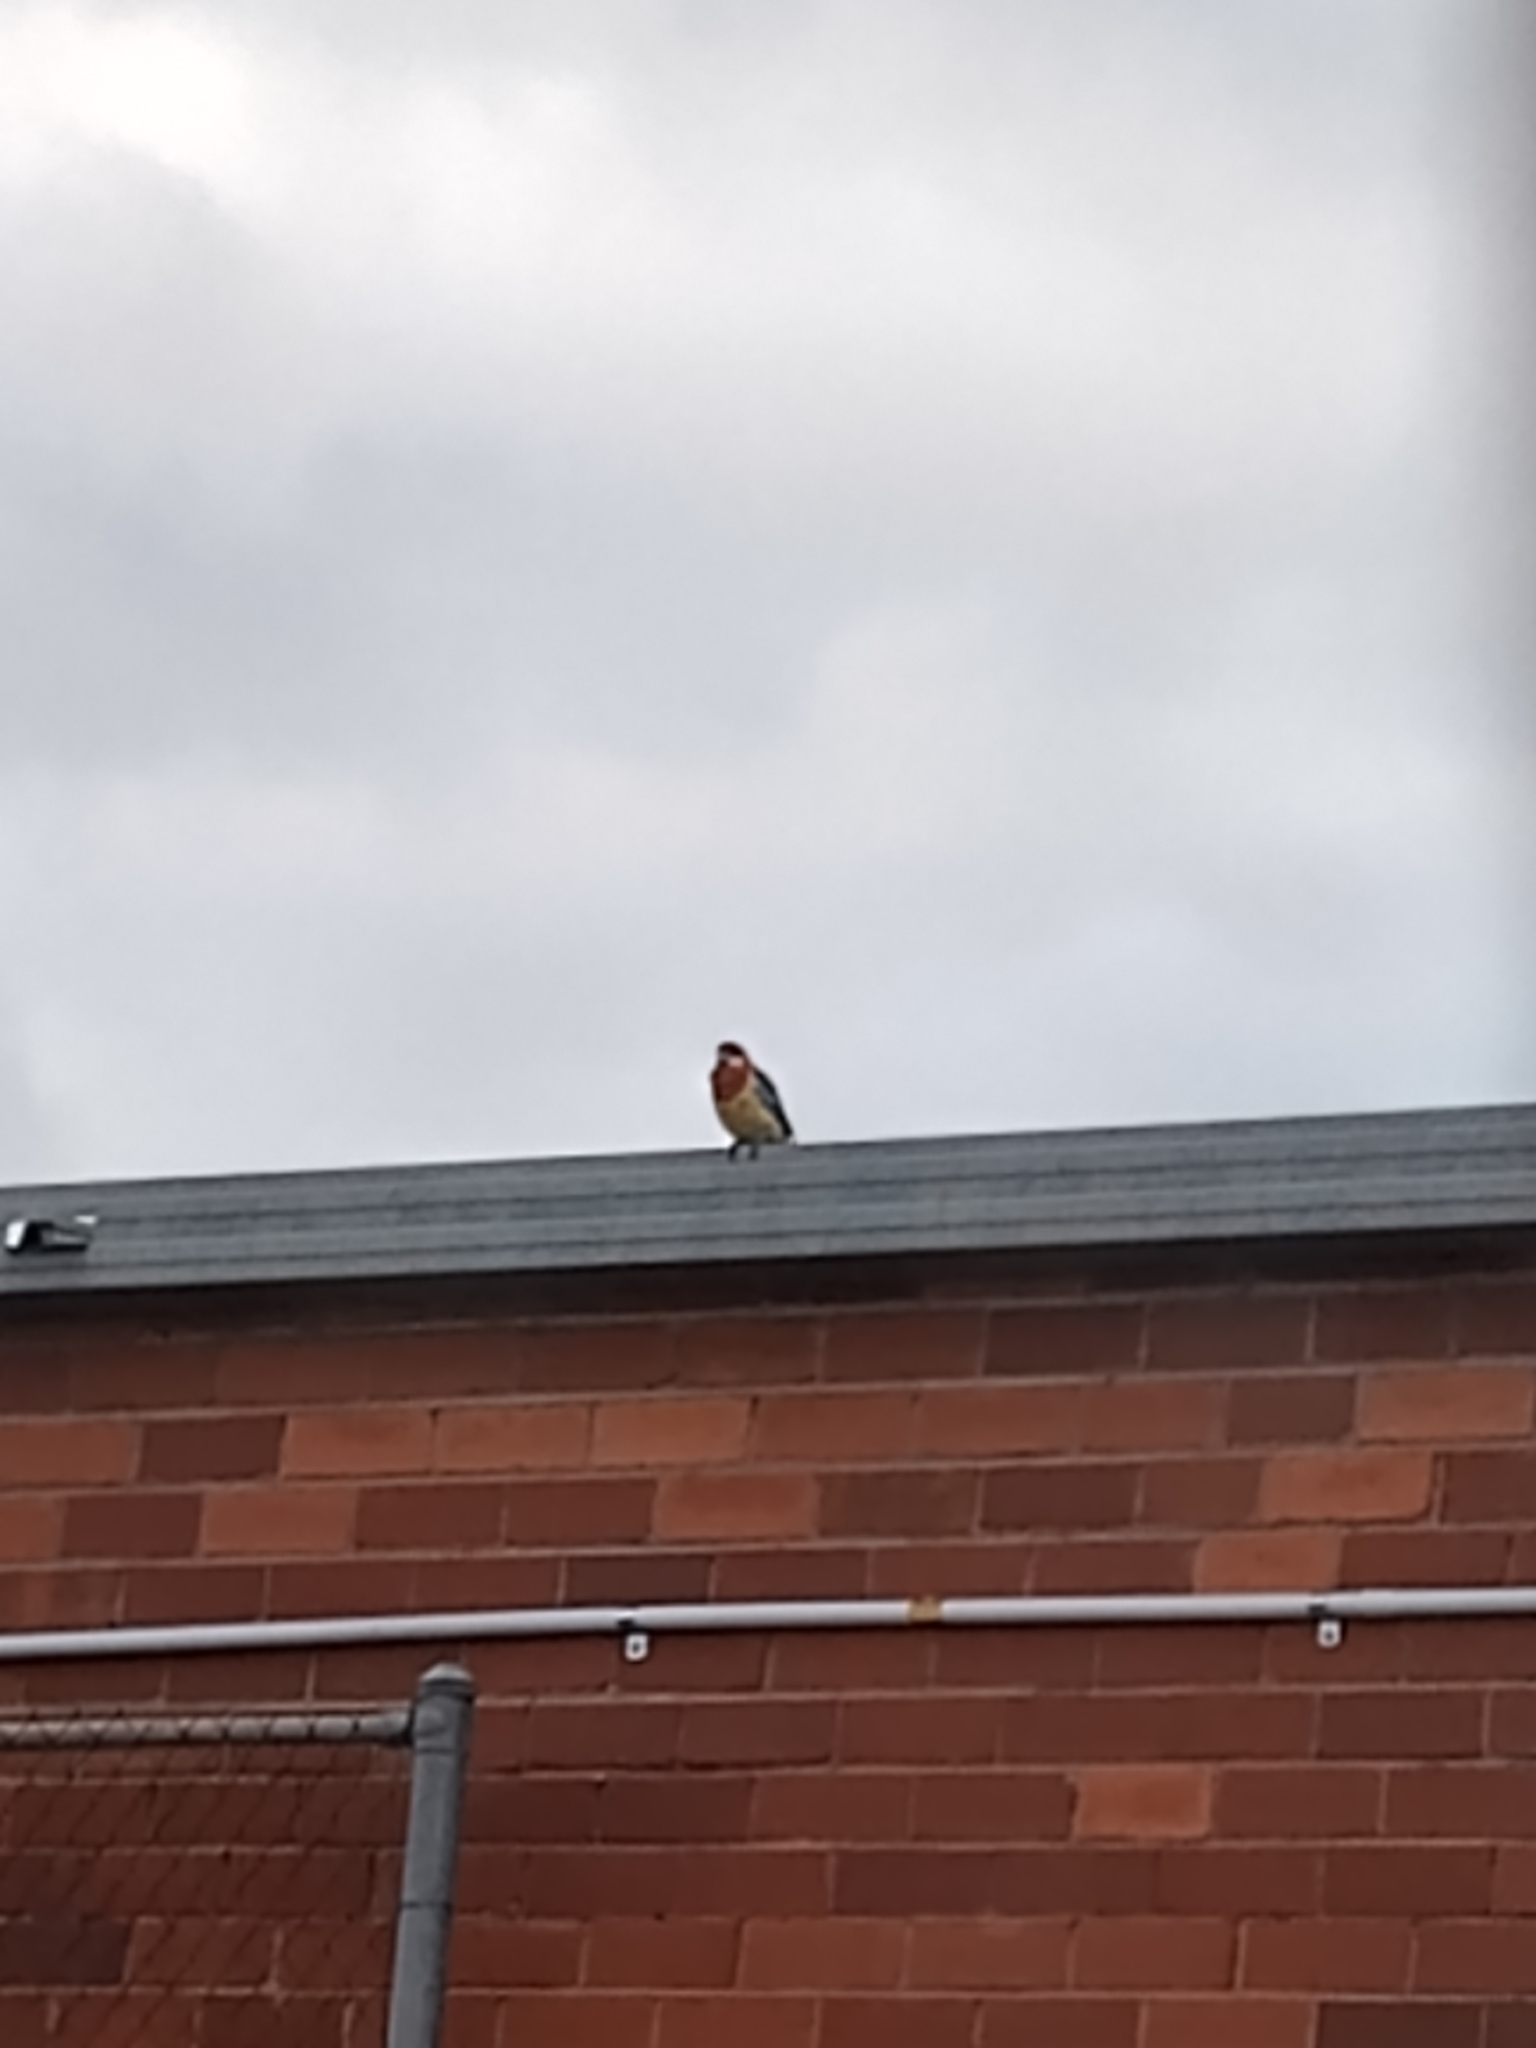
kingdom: Animalia
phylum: Chordata
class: Aves
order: Psittaciformes
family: Psittacidae
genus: Platycercus
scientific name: Platycercus eximius
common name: Eastern rosella
